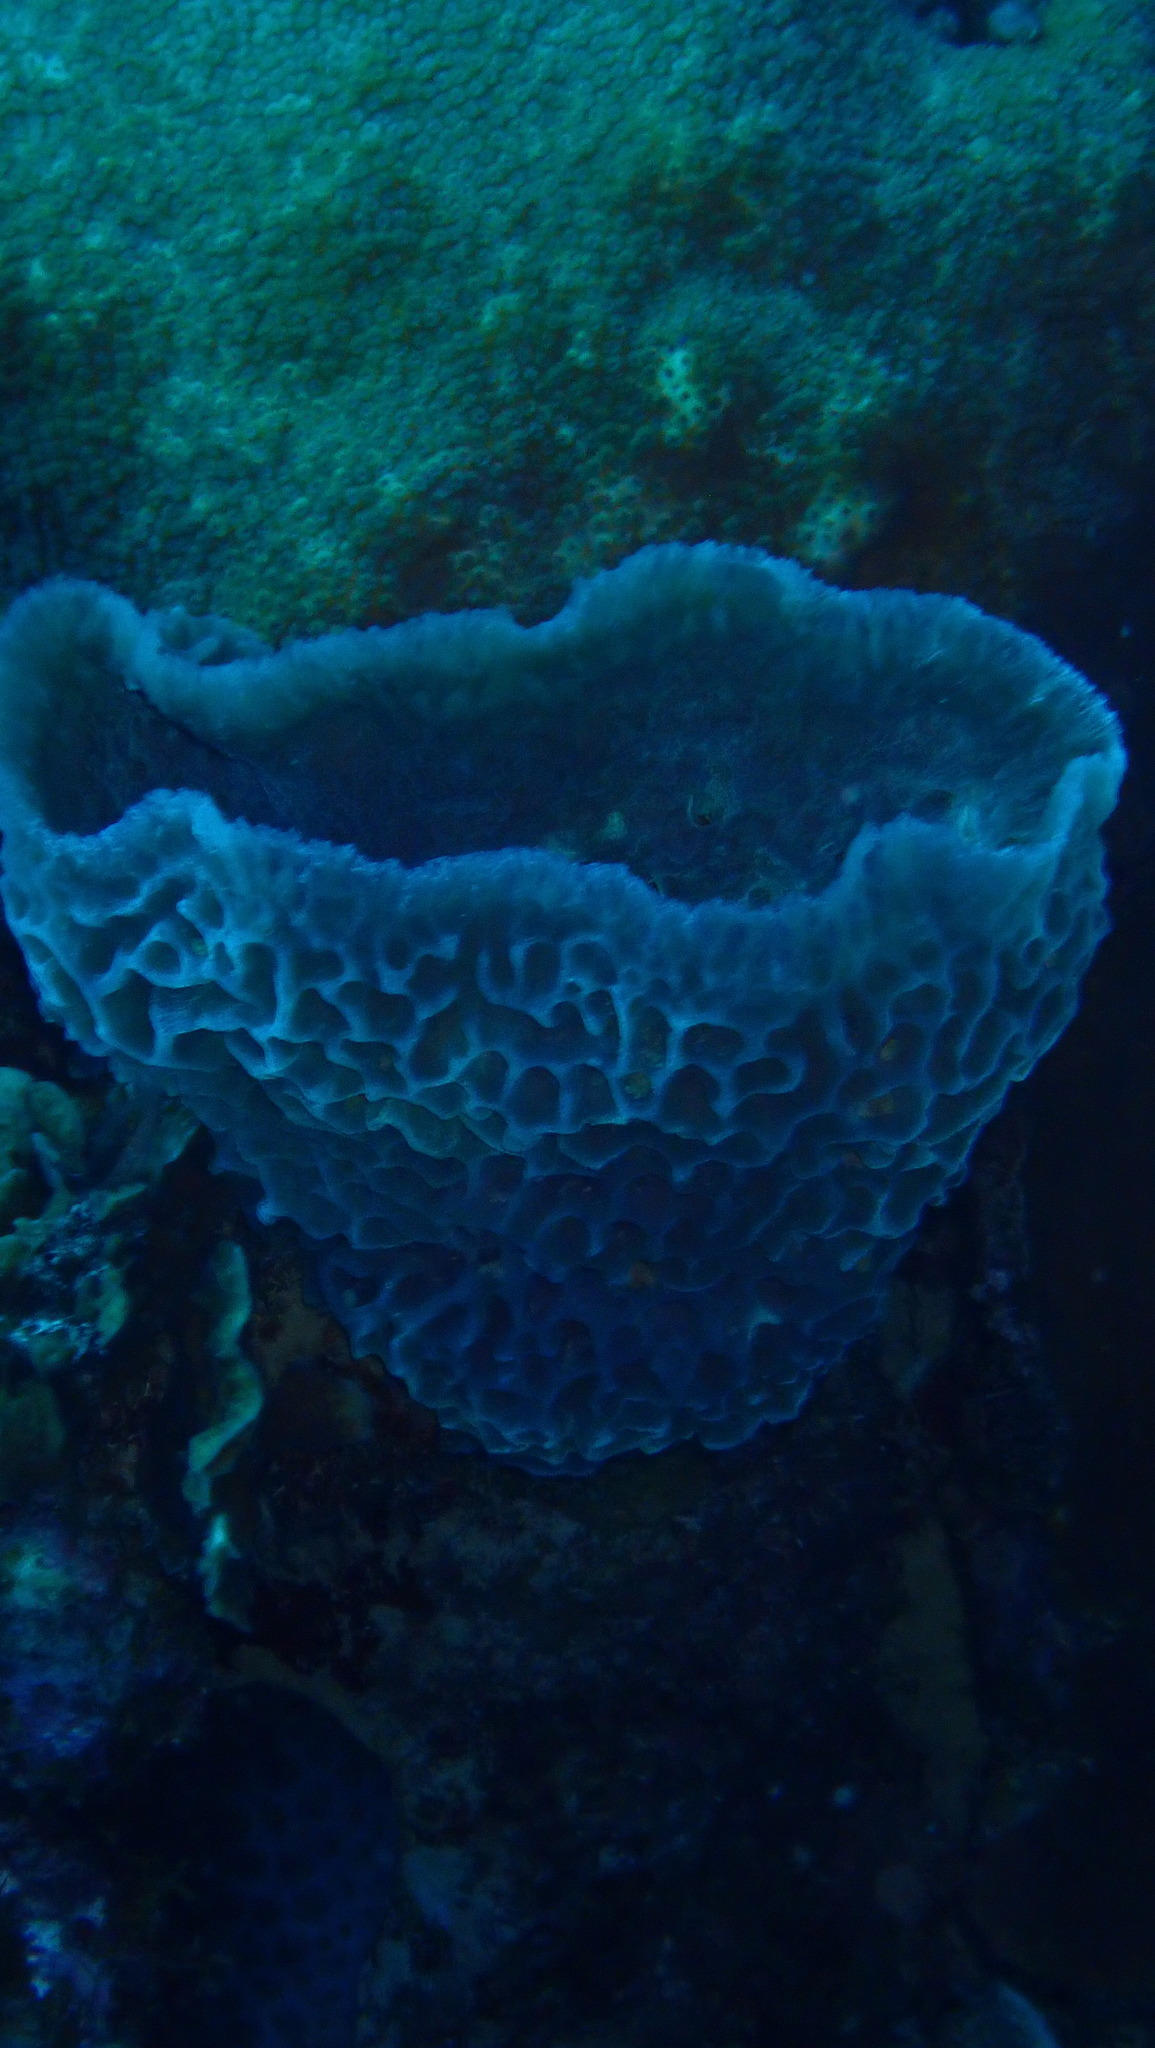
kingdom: Animalia
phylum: Porifera
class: Demospongiae
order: Haplosclerida
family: Callyspongiidae
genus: Callyspongia
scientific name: Callyspongia plicifera
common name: Azure vase sponge
